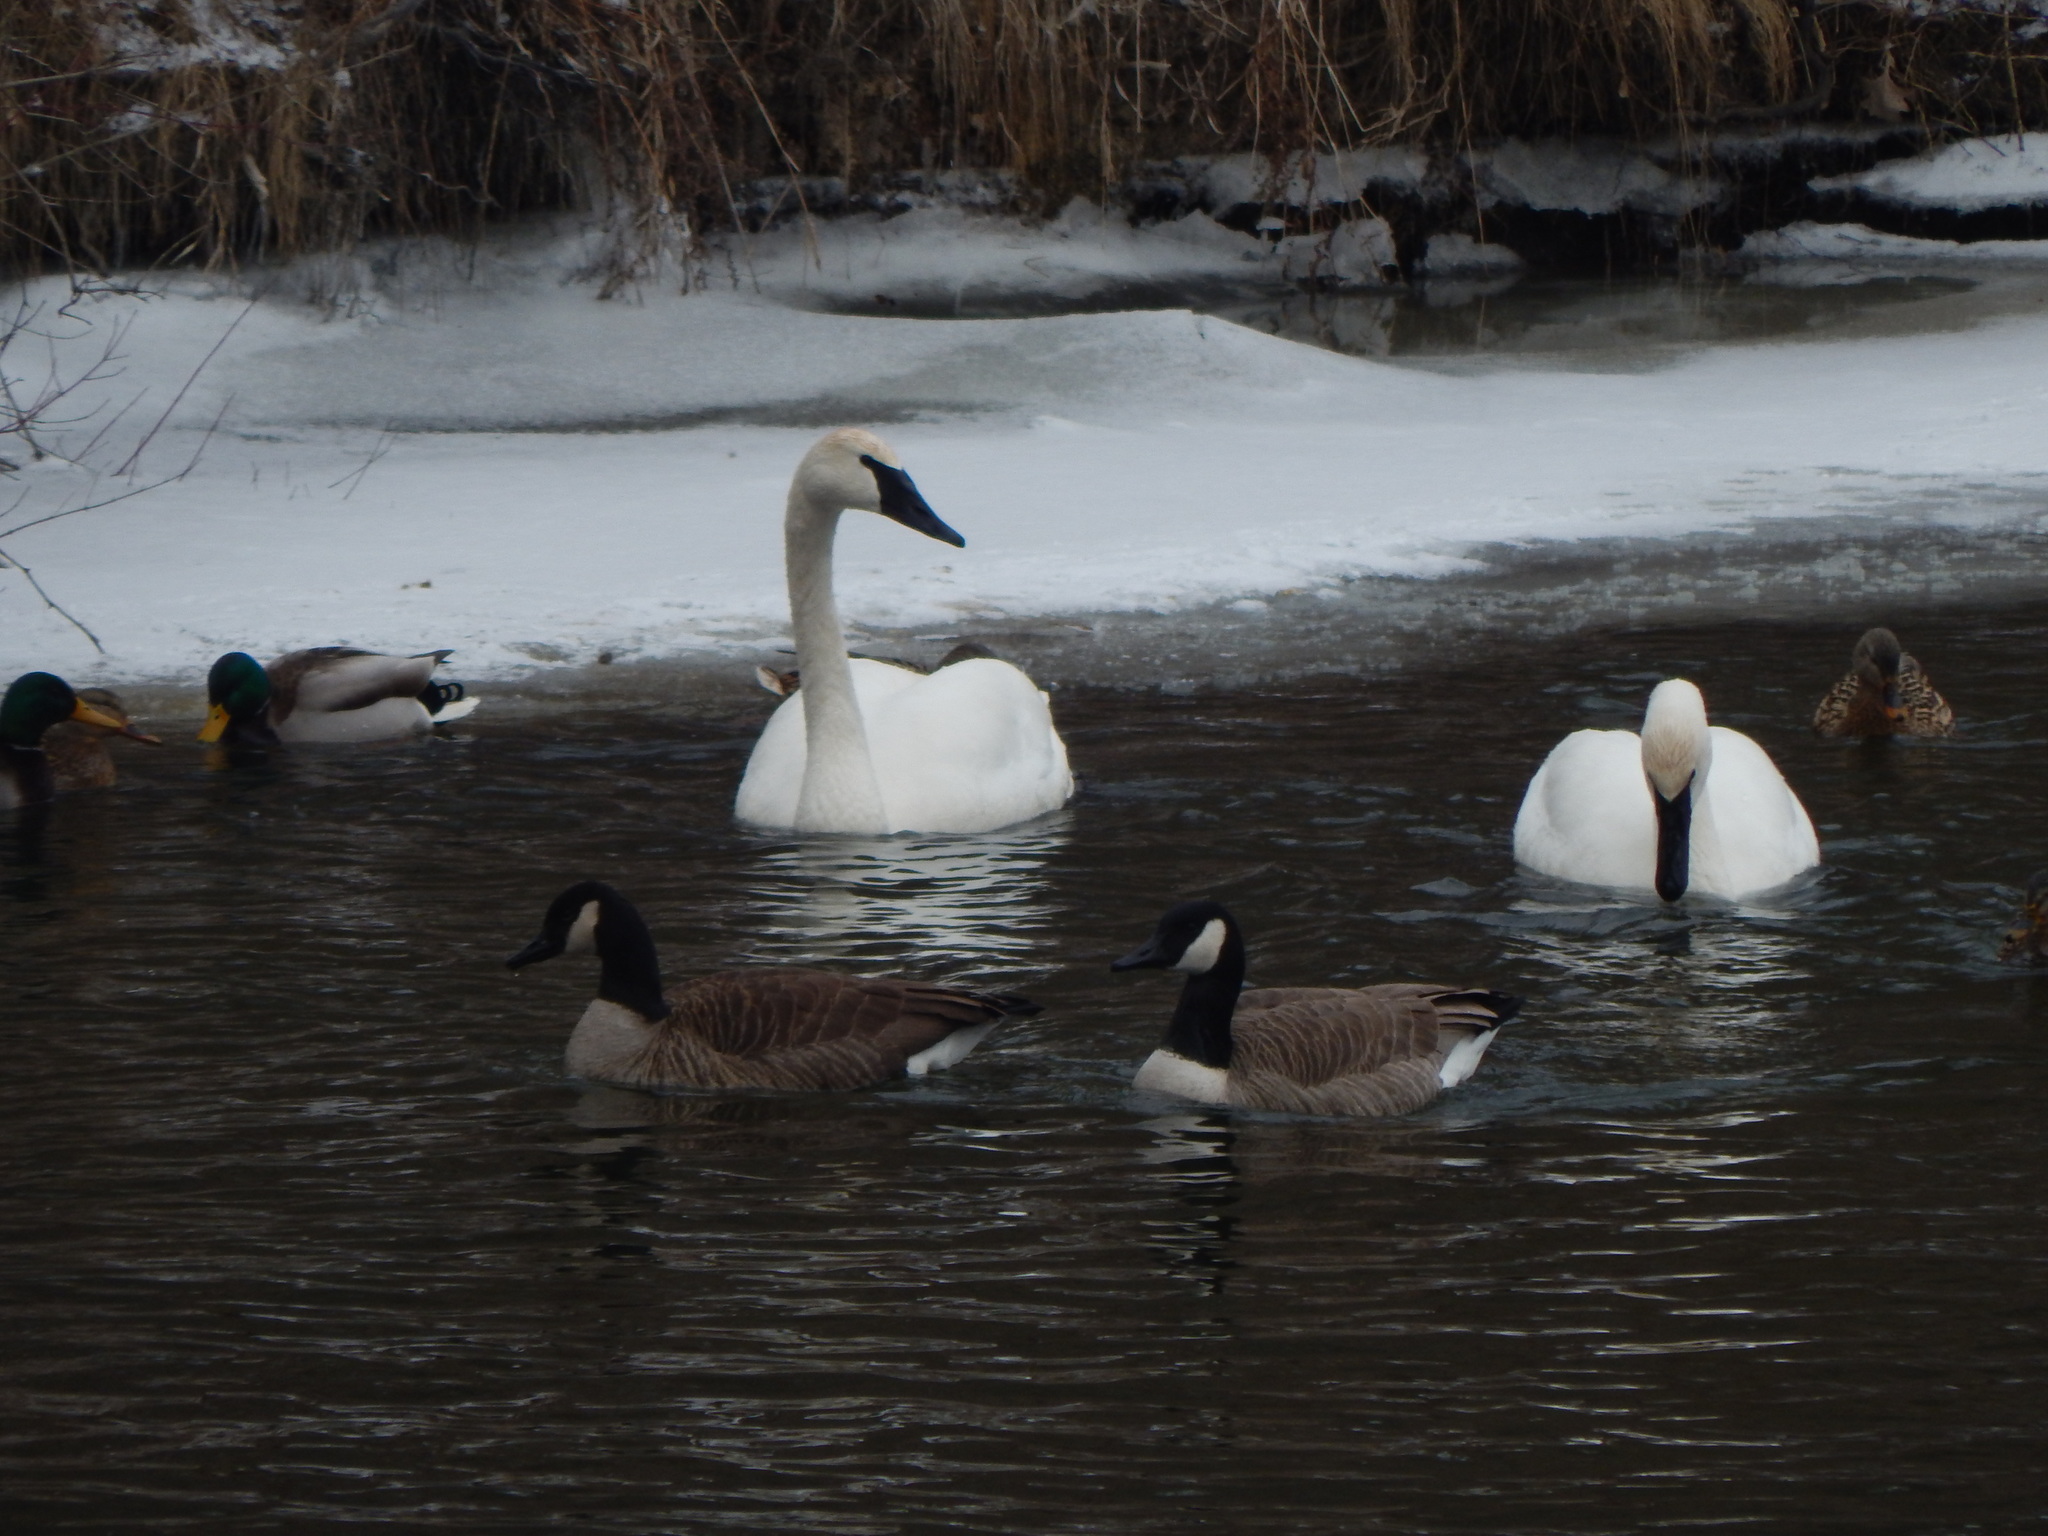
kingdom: Animalia
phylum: Chordata
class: Aves
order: Anseriformes
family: Anatidae
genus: Cygnus
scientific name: Cygnus buccinator
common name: Trumpeter swan
